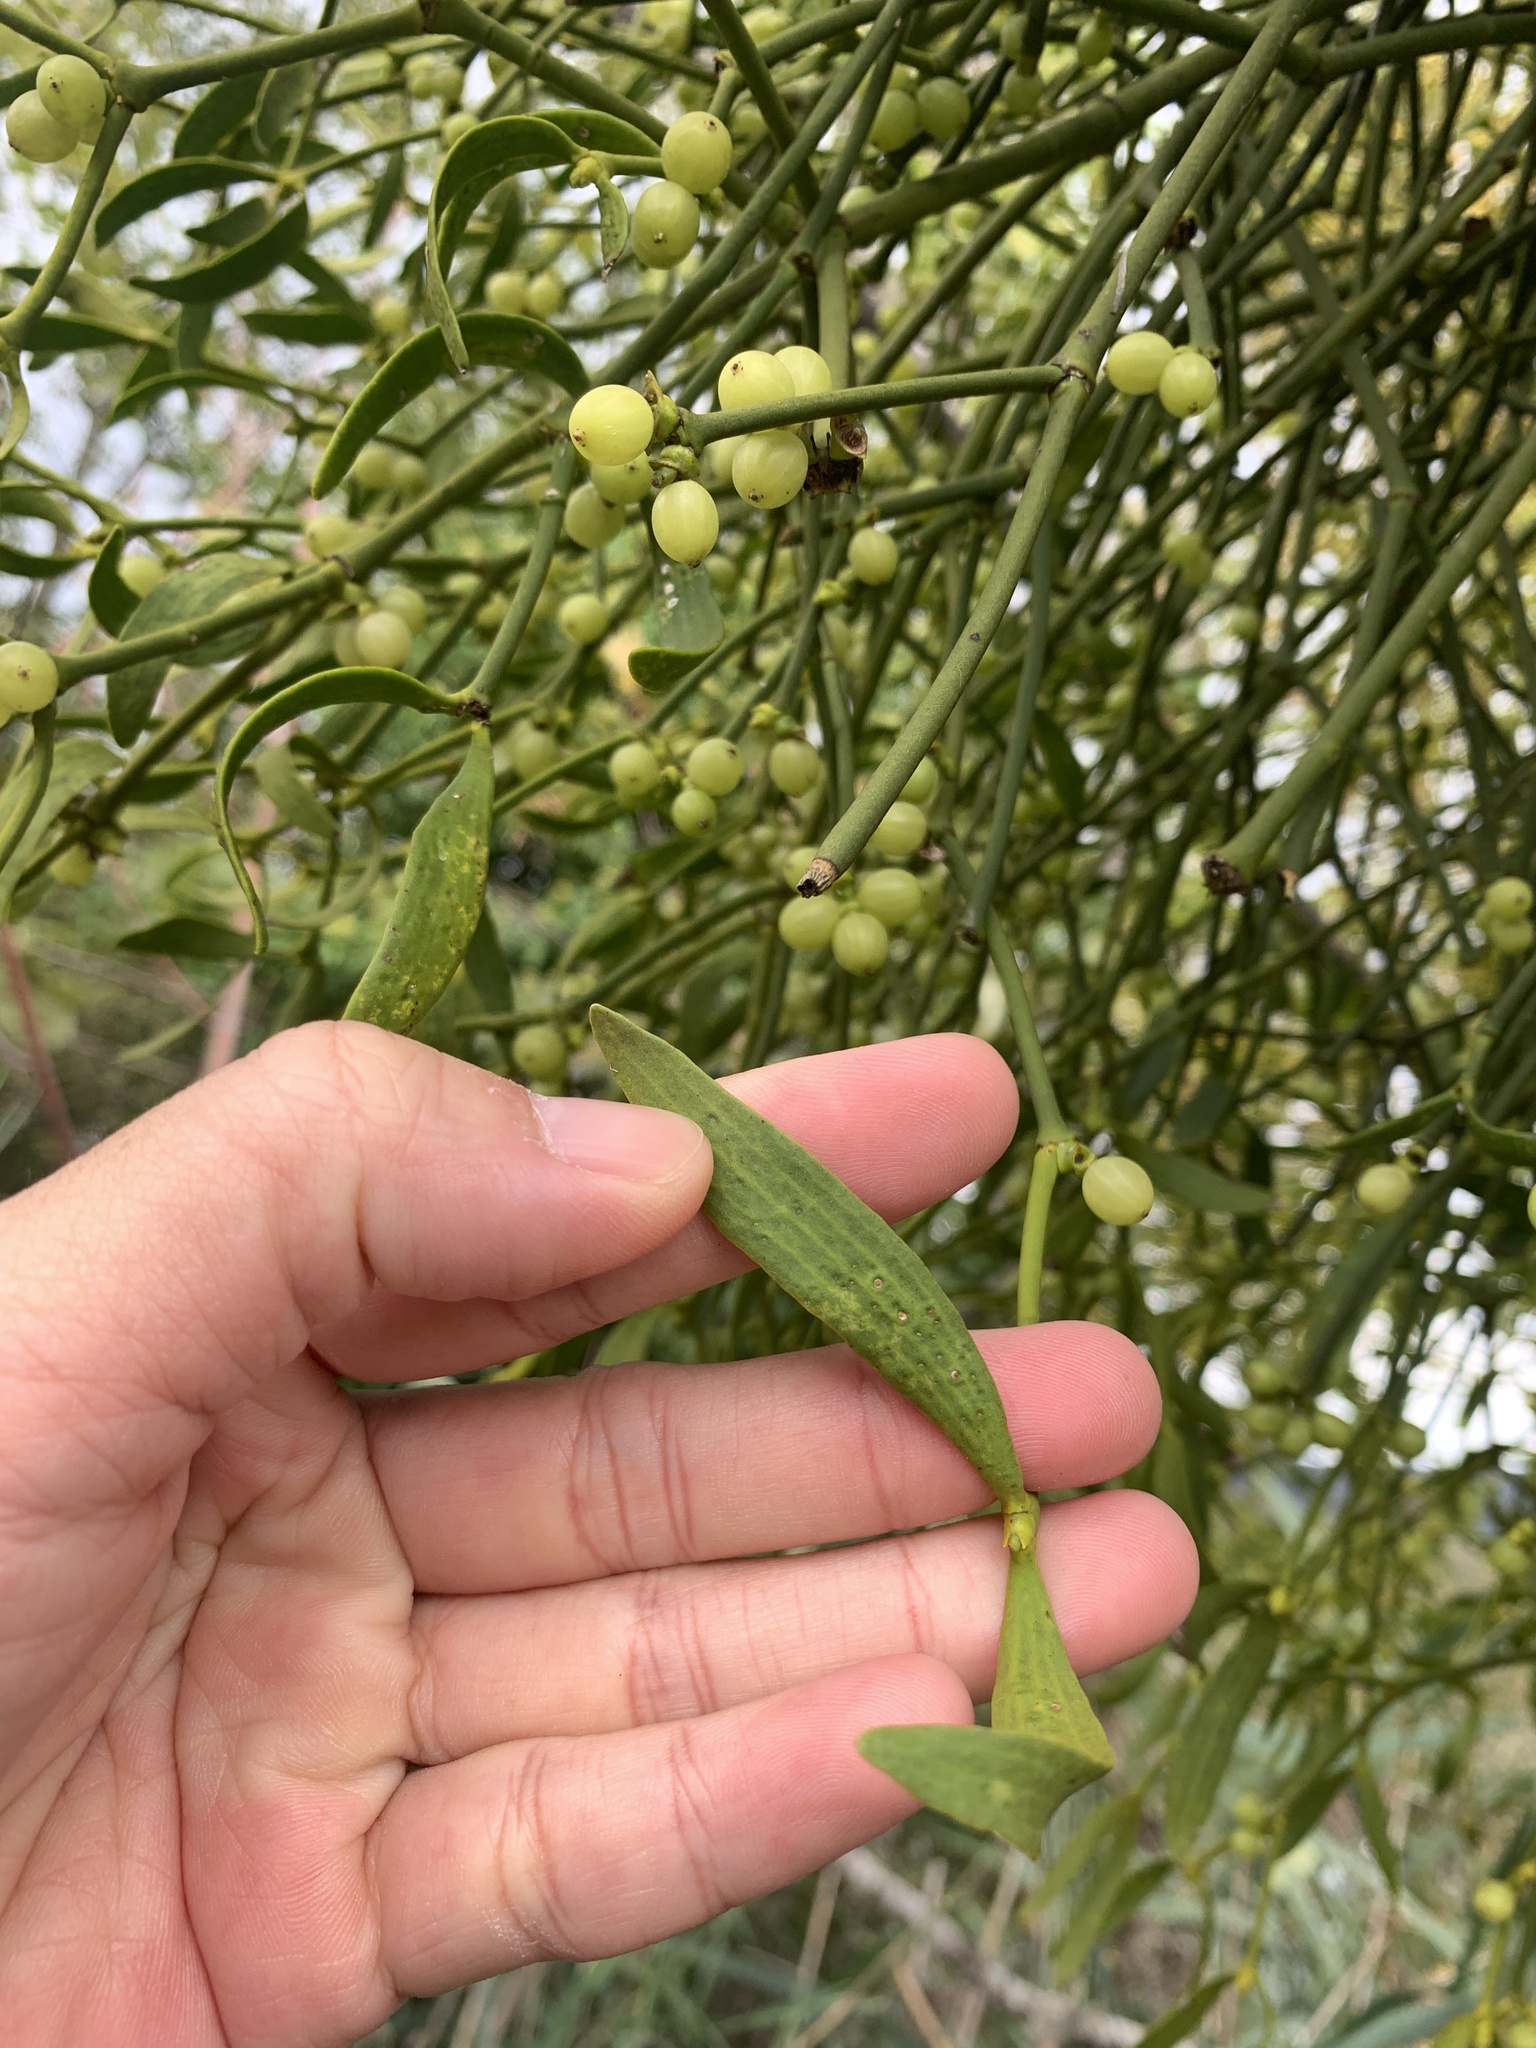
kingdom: Plantae
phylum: Tracheophyta
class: Magnoliopsida
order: Santalales
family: Viscaceae
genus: Viscum
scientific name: Viscum album
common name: Mistletoe
